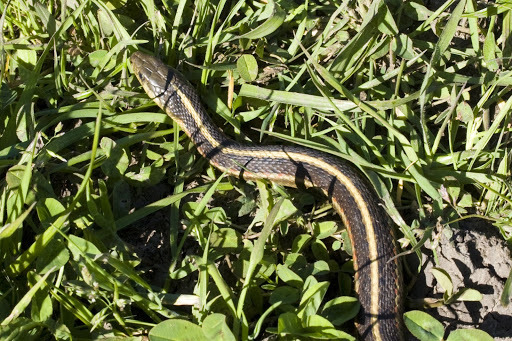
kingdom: Animalia
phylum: Chordata
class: Squamata
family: Colubridae
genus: Thamnophis
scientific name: Thamnophis elegans
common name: Western terrestrial garter snake
